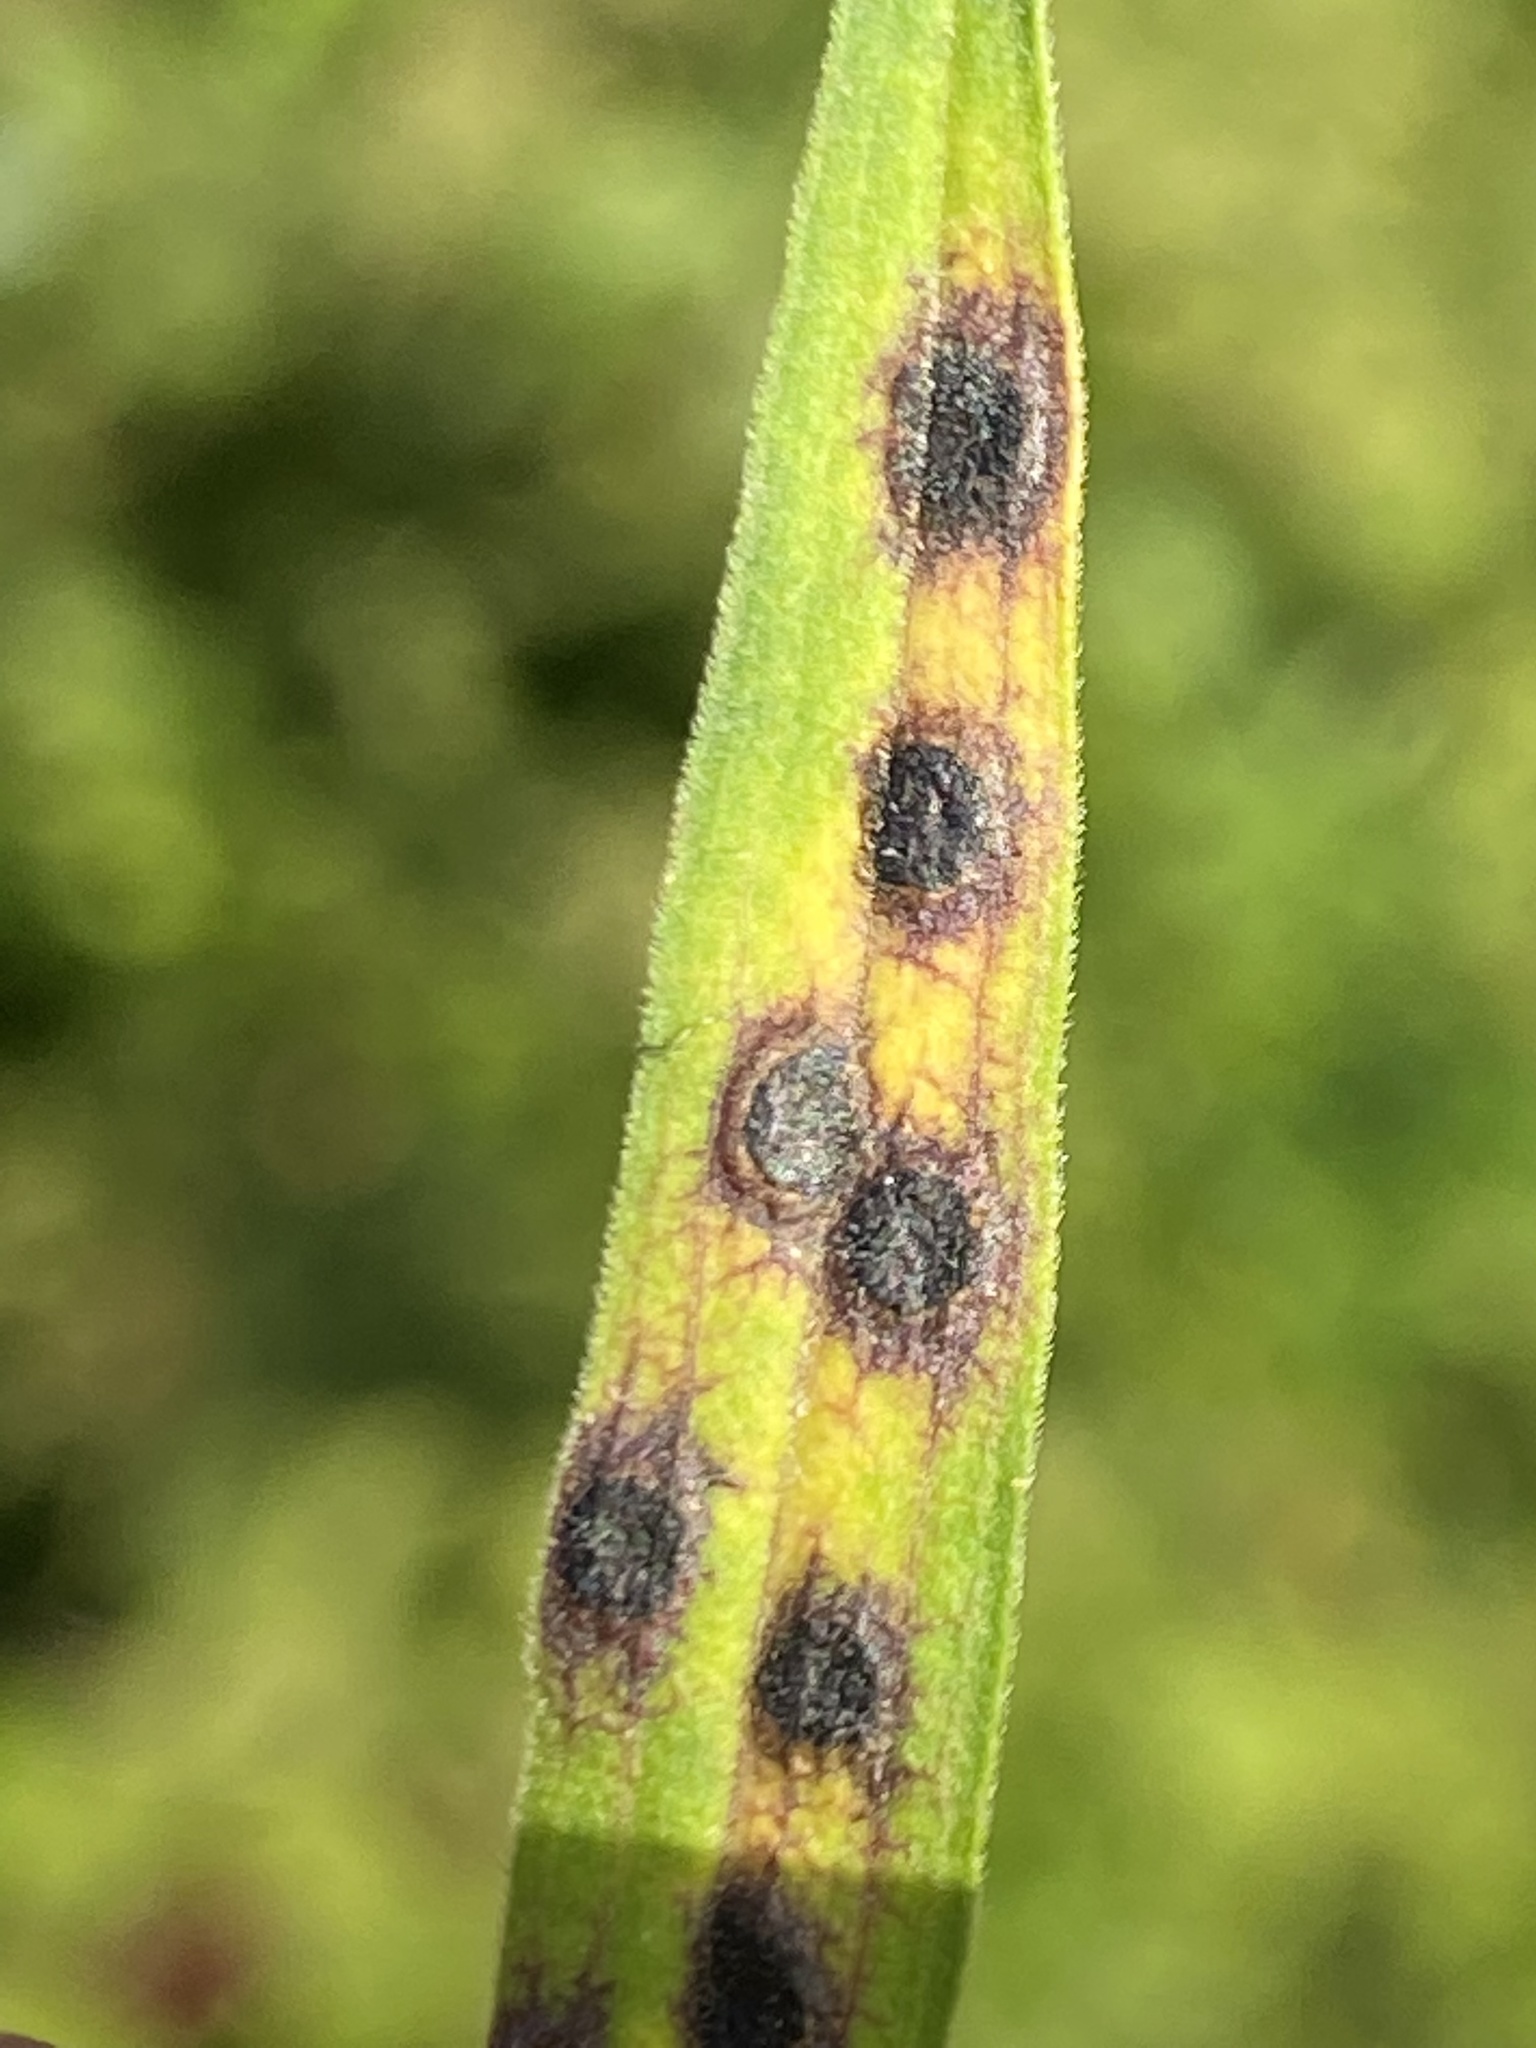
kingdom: Animalia
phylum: Arthropoda
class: Insecta
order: Diptera
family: Cecidomyiidae
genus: Asteromyia
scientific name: Asteromyia euthamiae
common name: Euthamia leaf gall midge
